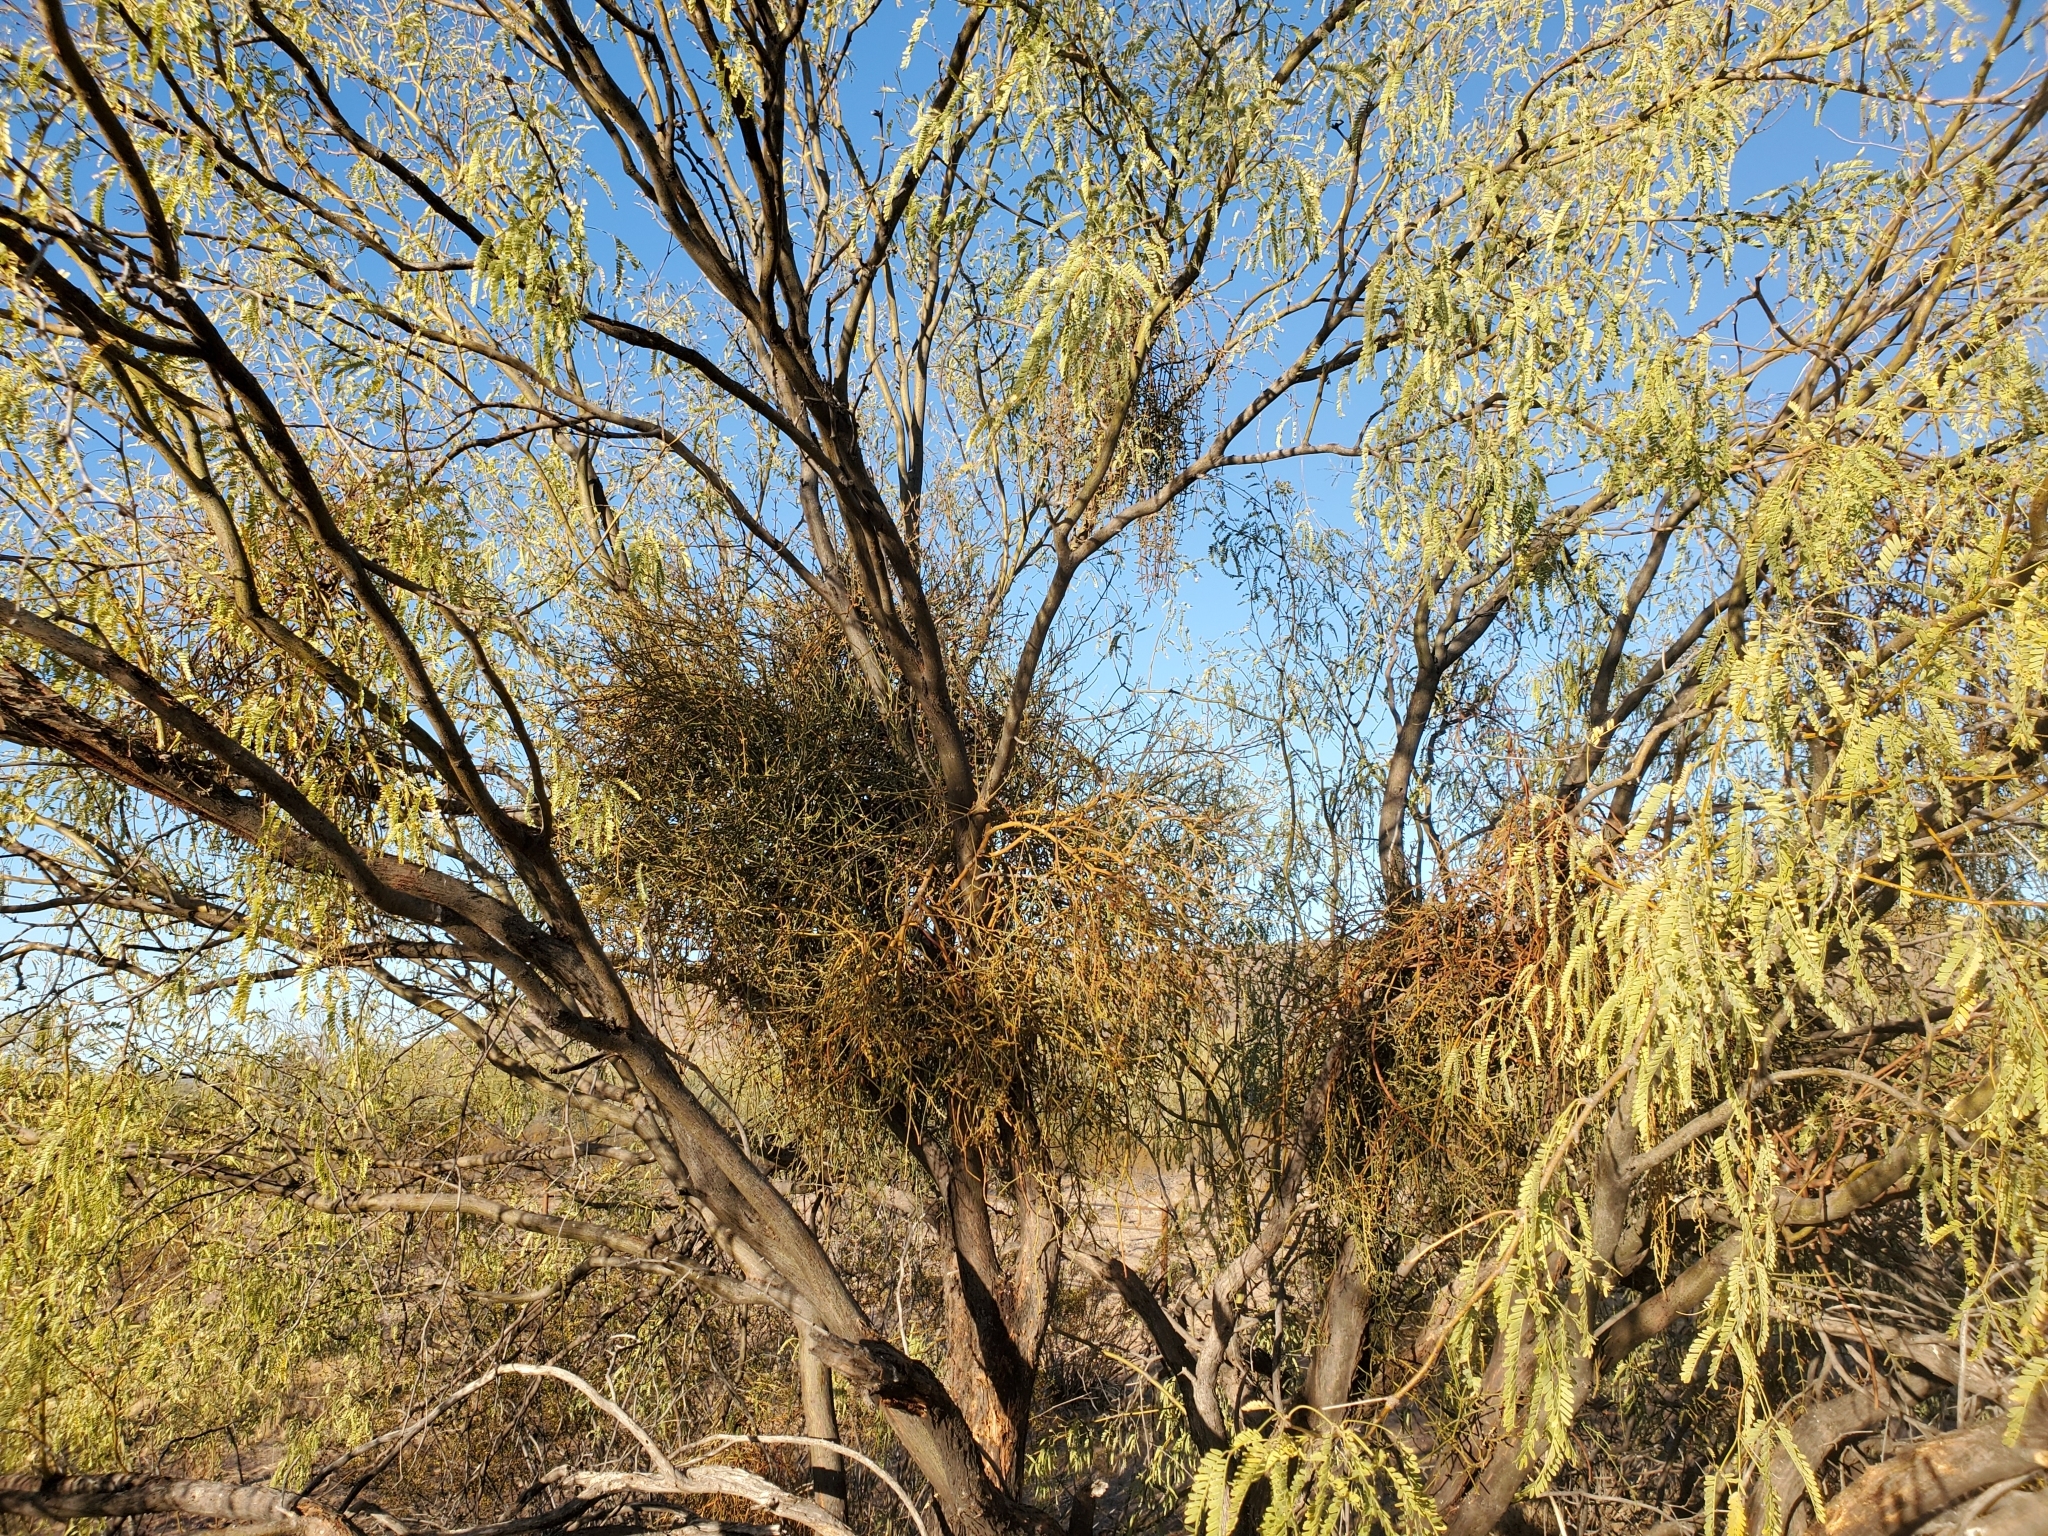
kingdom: Plantae
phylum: Tracheophyta
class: Magnoliopsida
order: Santalales
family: Viscaceae
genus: Phoradendron
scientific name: Phoradendron californicum
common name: Acacia mistletoe
